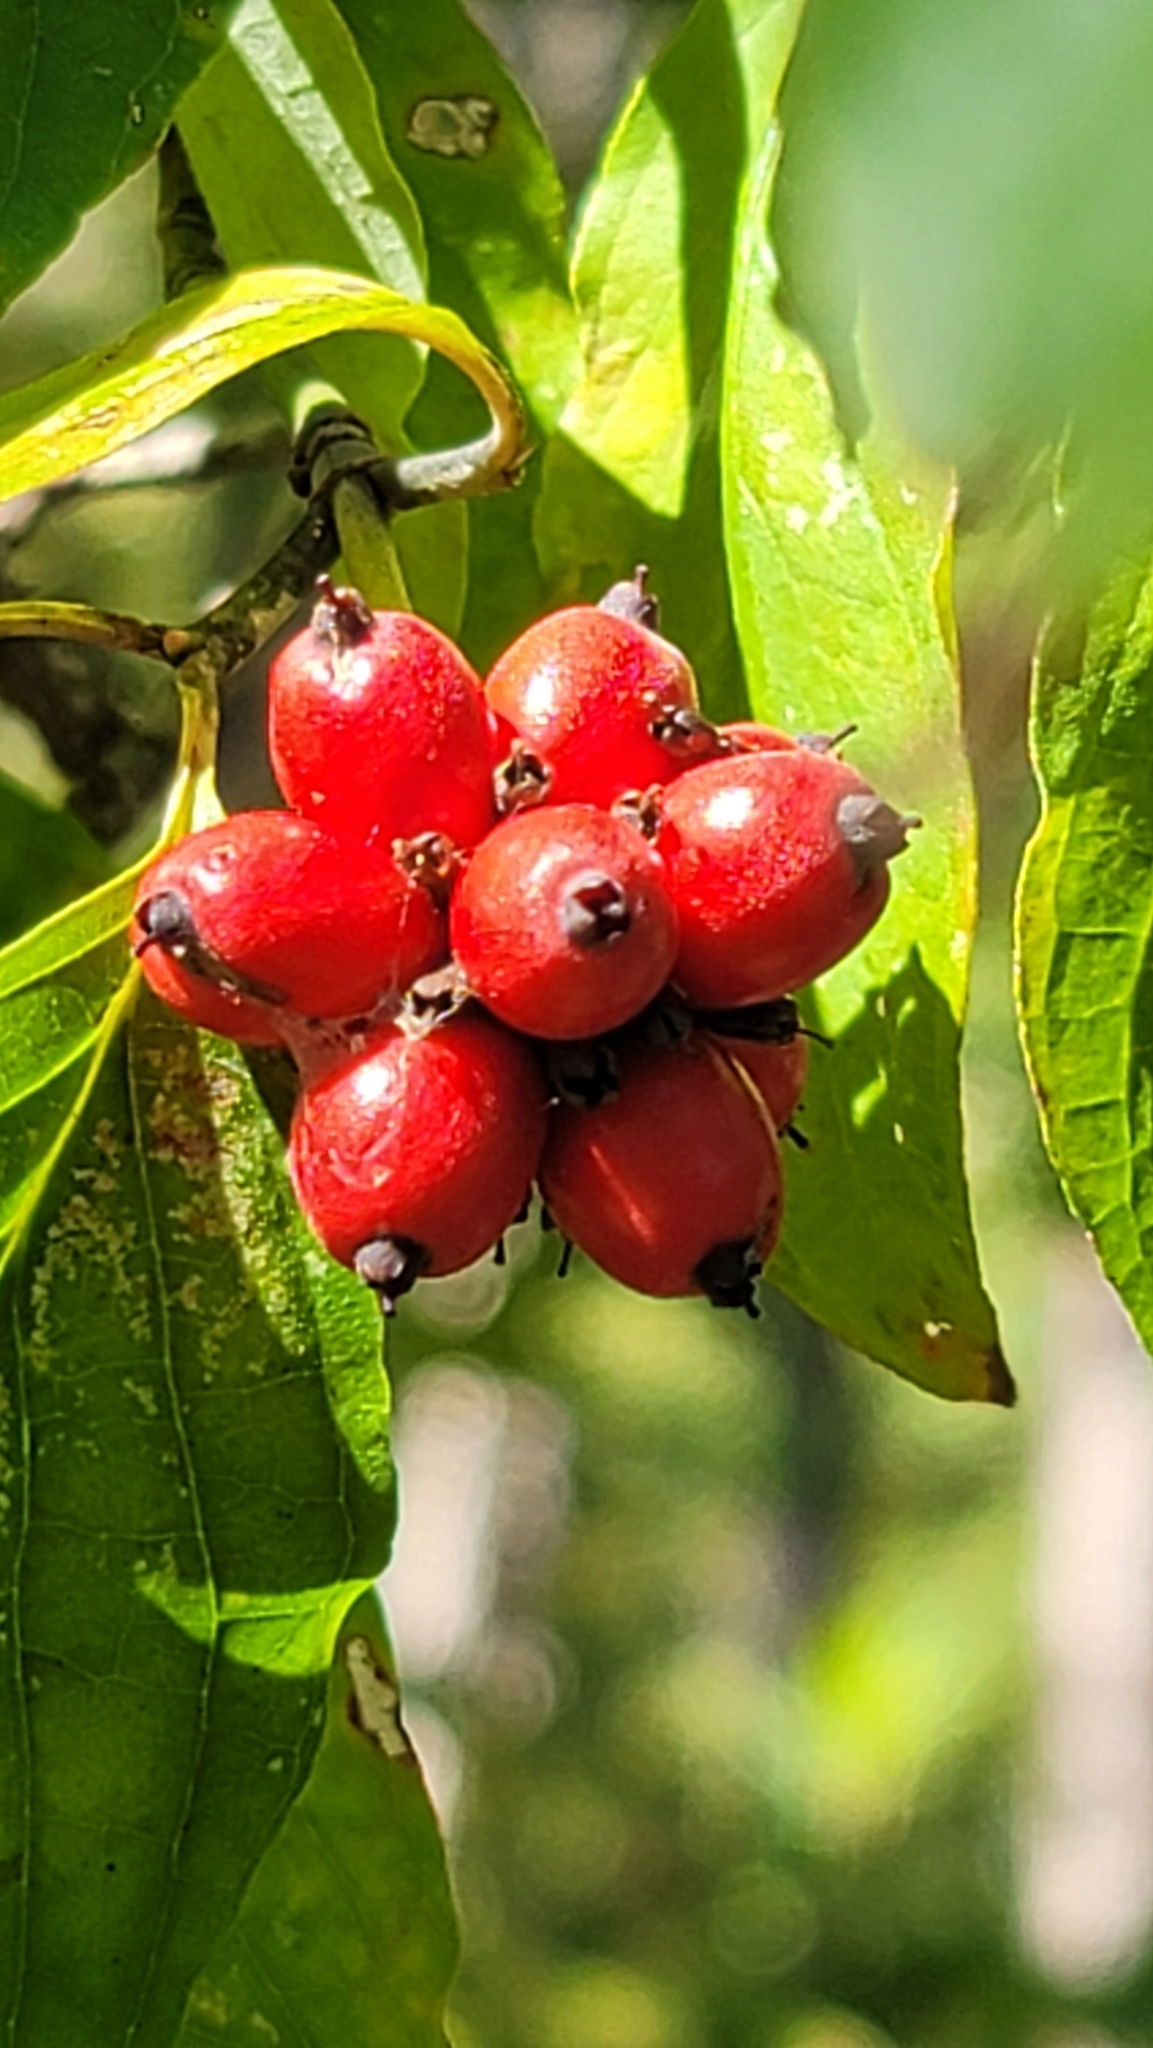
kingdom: Plantae
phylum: Tracheophyta
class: Magnoliopsida
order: Cornales
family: Cornaceae
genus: Cornus
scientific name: Cornus florida
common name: Flowering dogwood
